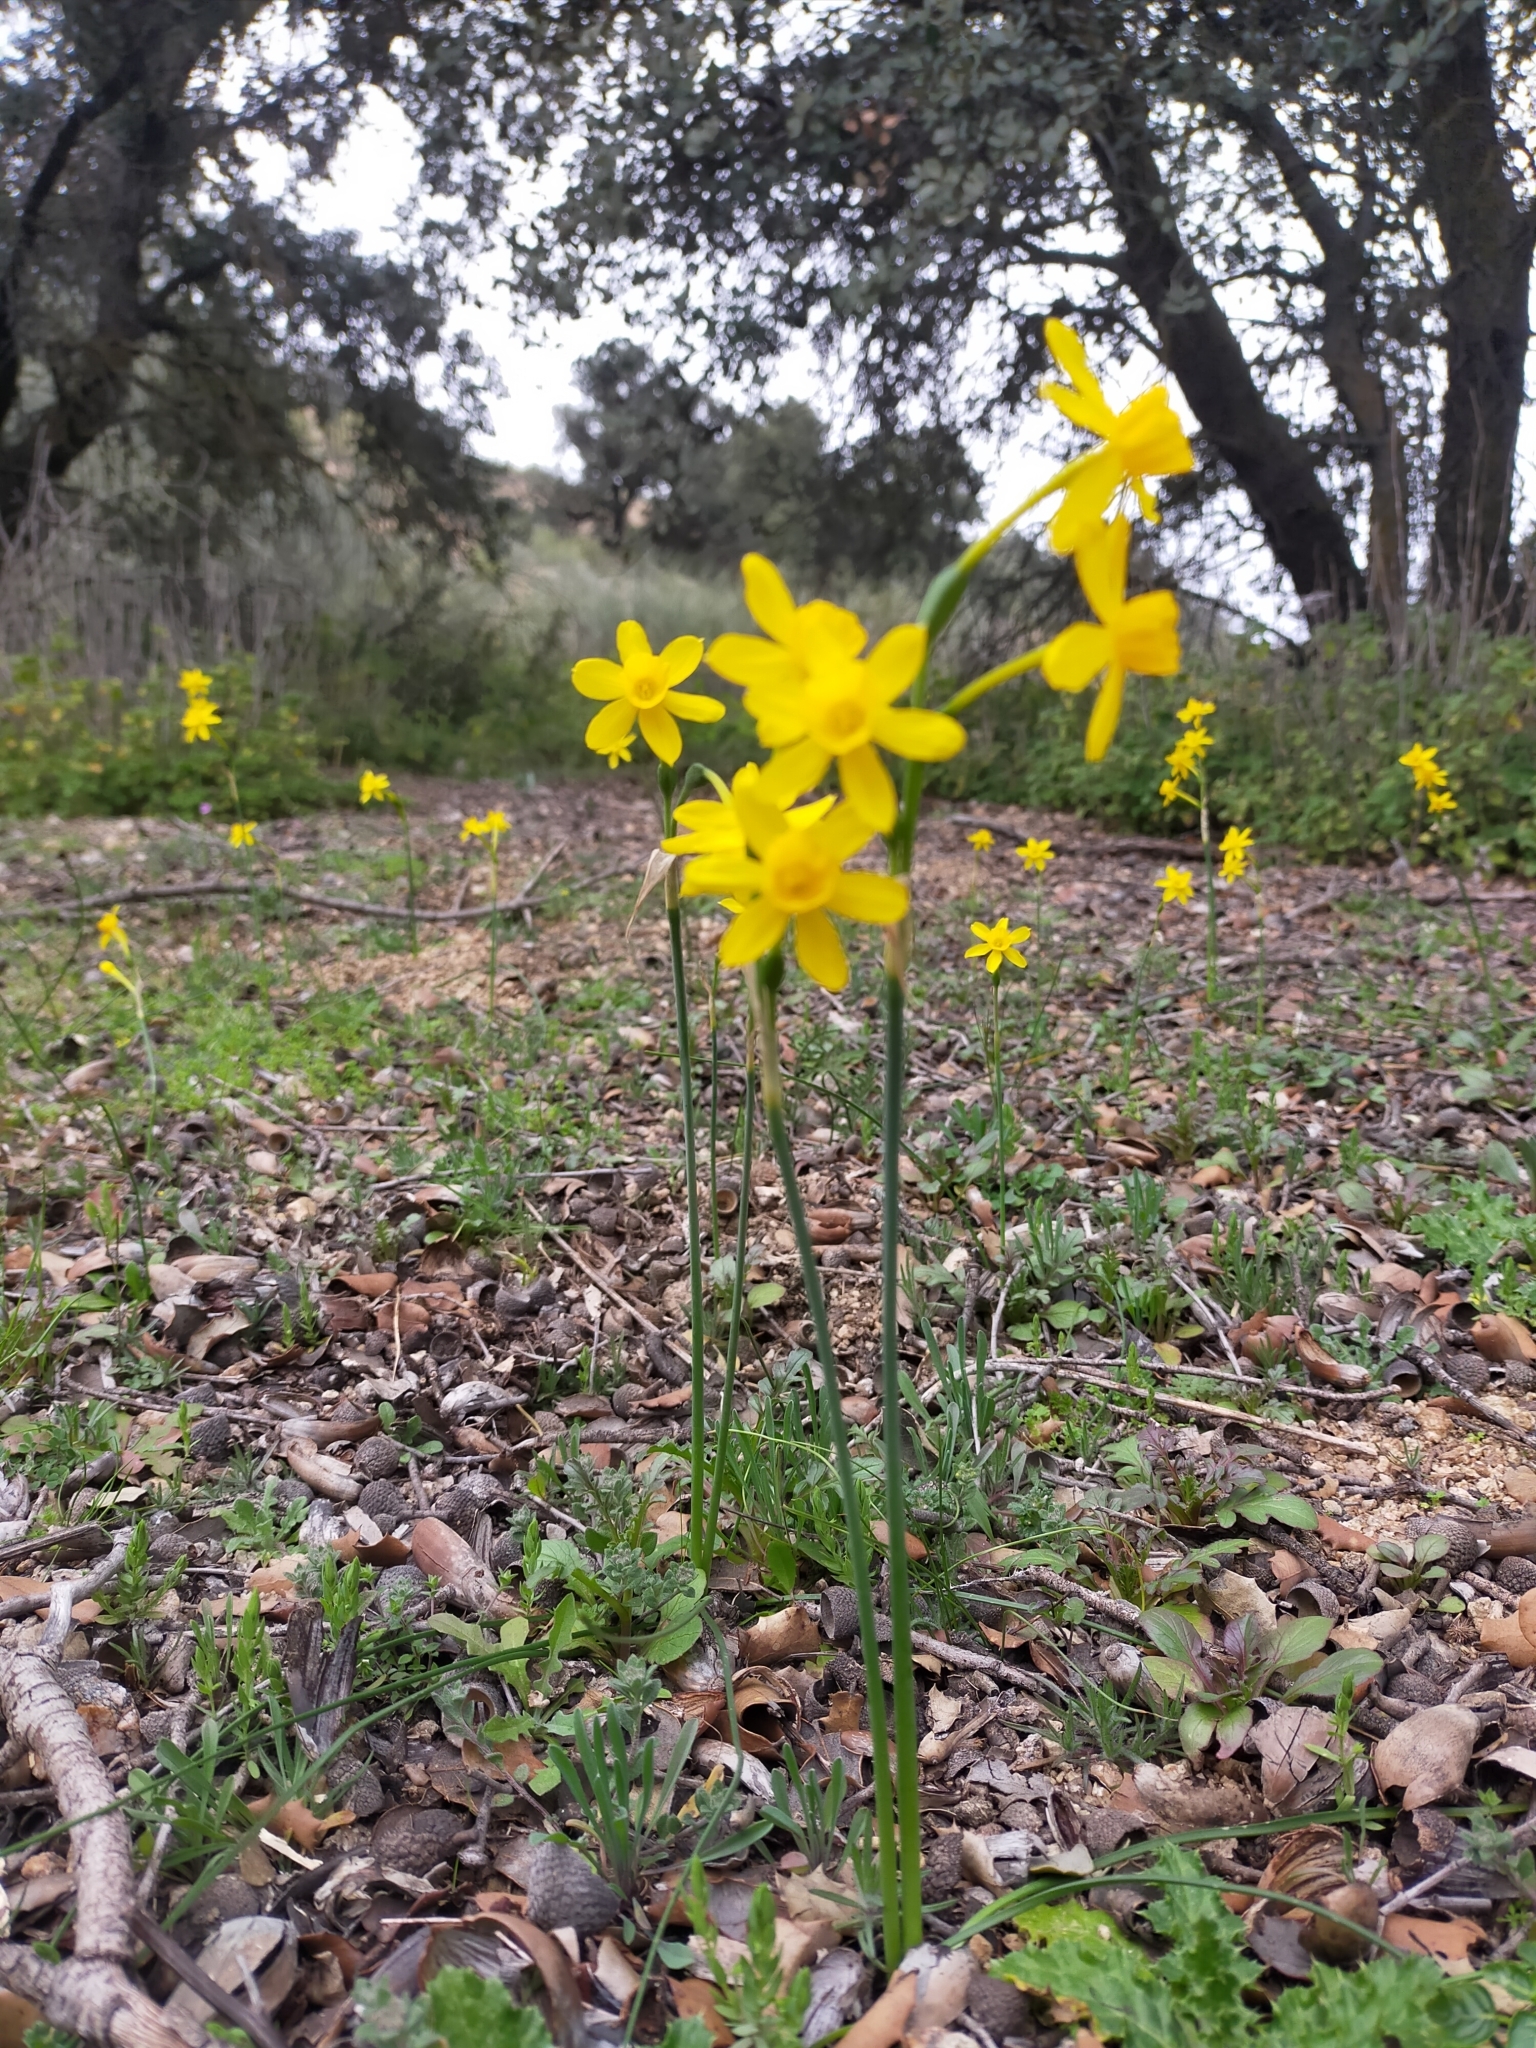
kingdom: Plantae
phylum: Tracheophyta
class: Liliopsida
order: Asparagales
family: Amaryllidaceae
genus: Narcissus
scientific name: Narcissus flavus
